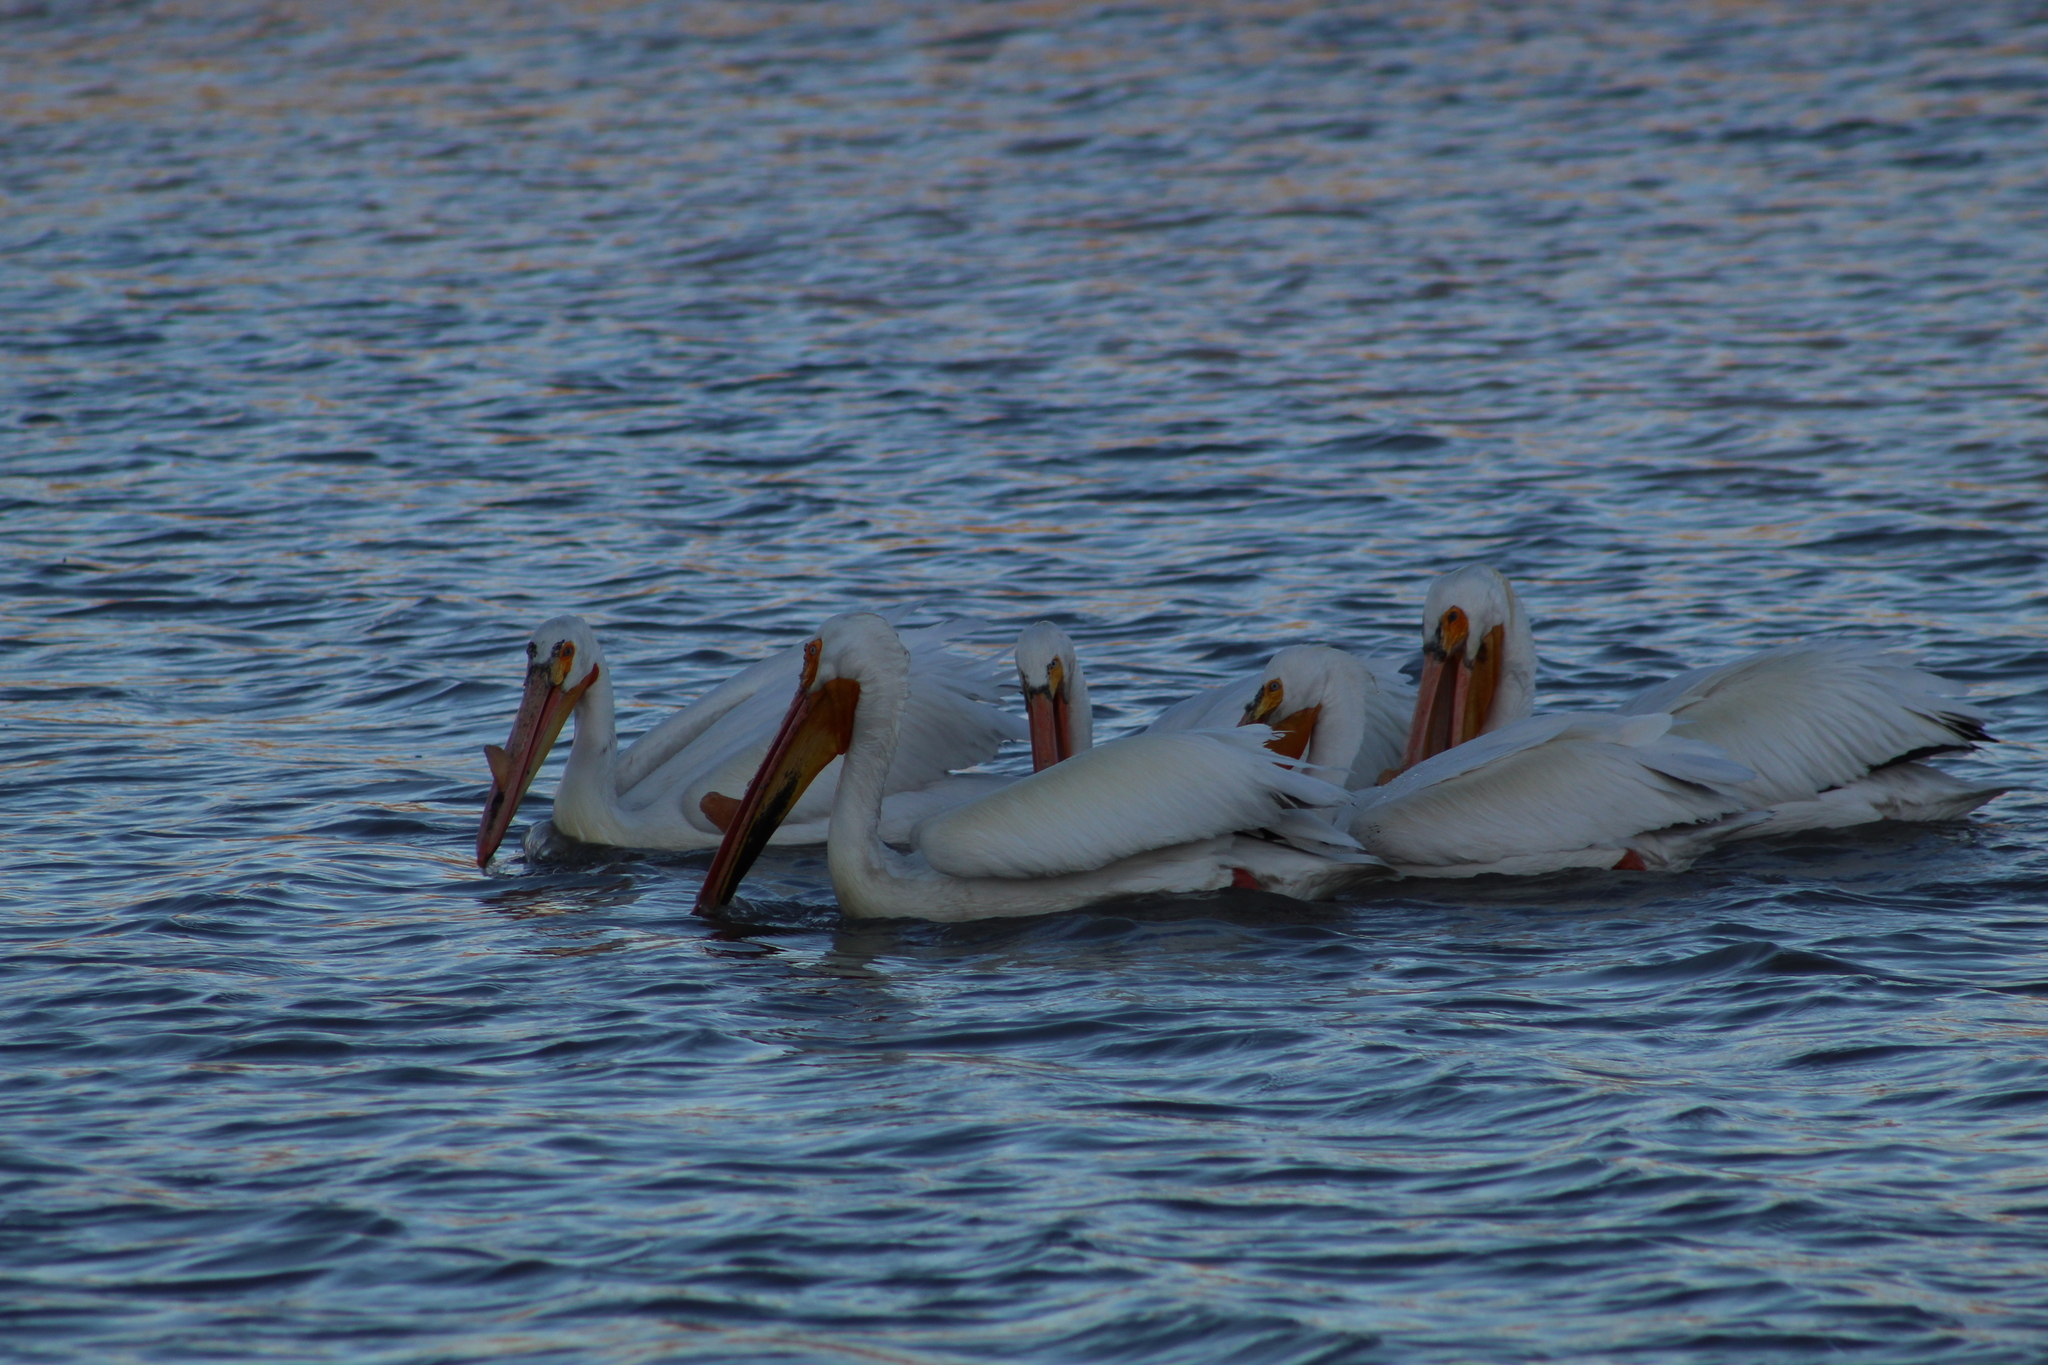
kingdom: Animalia
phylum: Chordata
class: Aves
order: Pelecaniformes
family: Pelecanidae
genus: Pelecanus
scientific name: Pelecanus erythrorhynchos
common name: American white pelican
